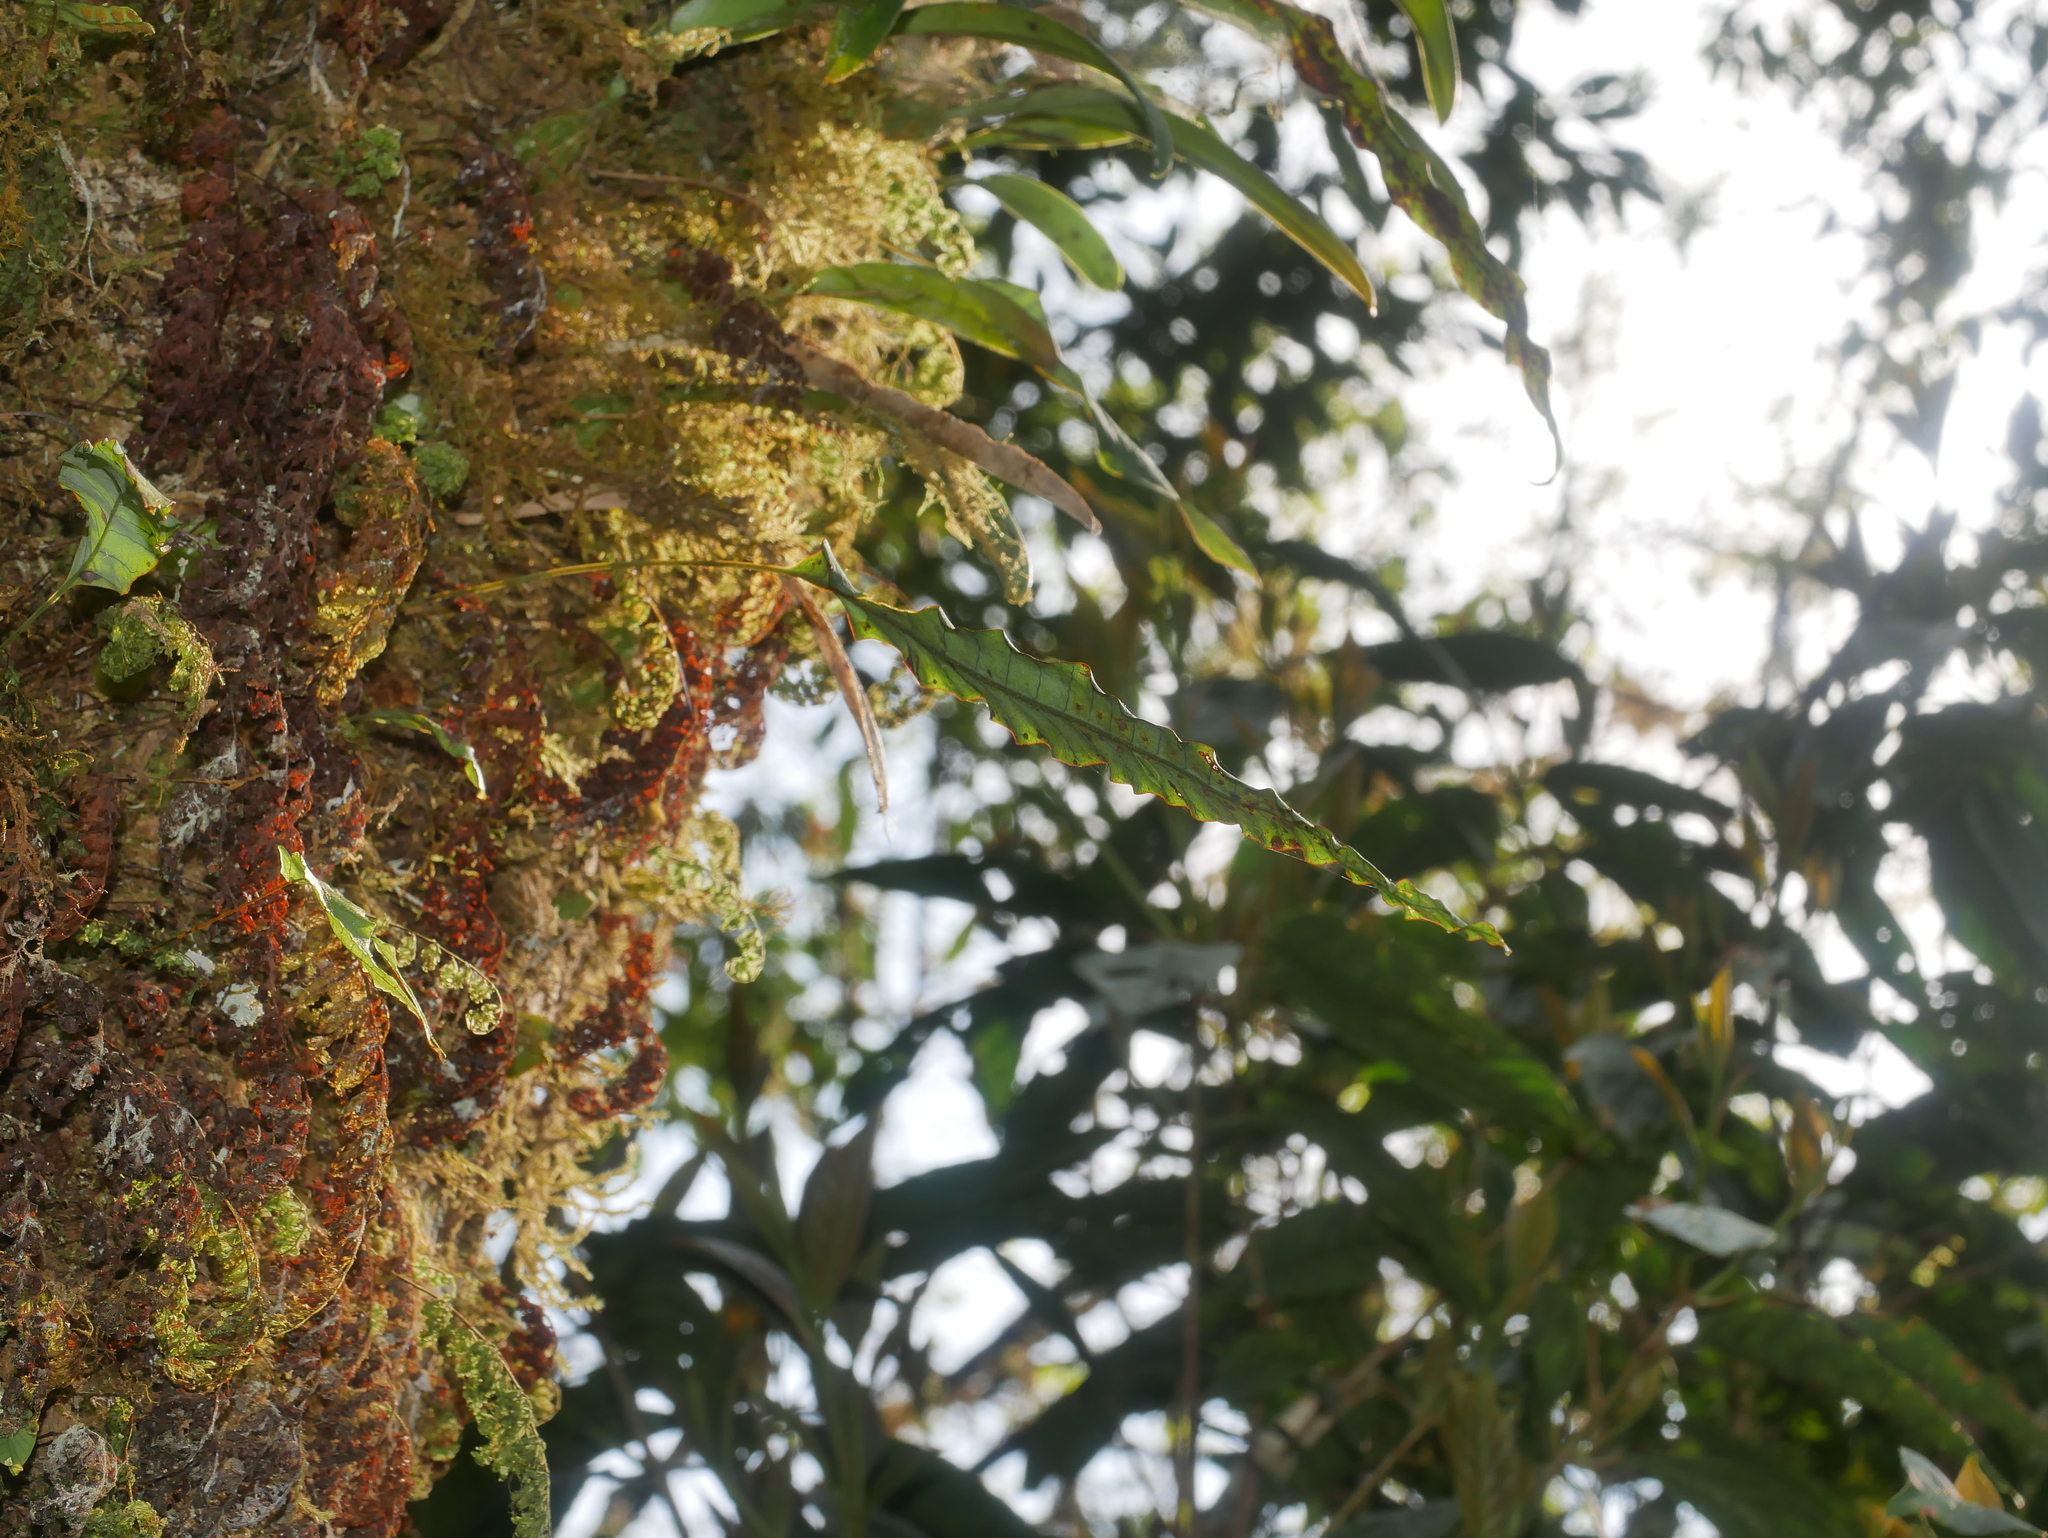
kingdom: Plantae
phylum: Tracheophyta
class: Polypodiopsida
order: Polypodiales
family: Polypodiaceae
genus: Selliguea
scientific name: Selliguea engleri
